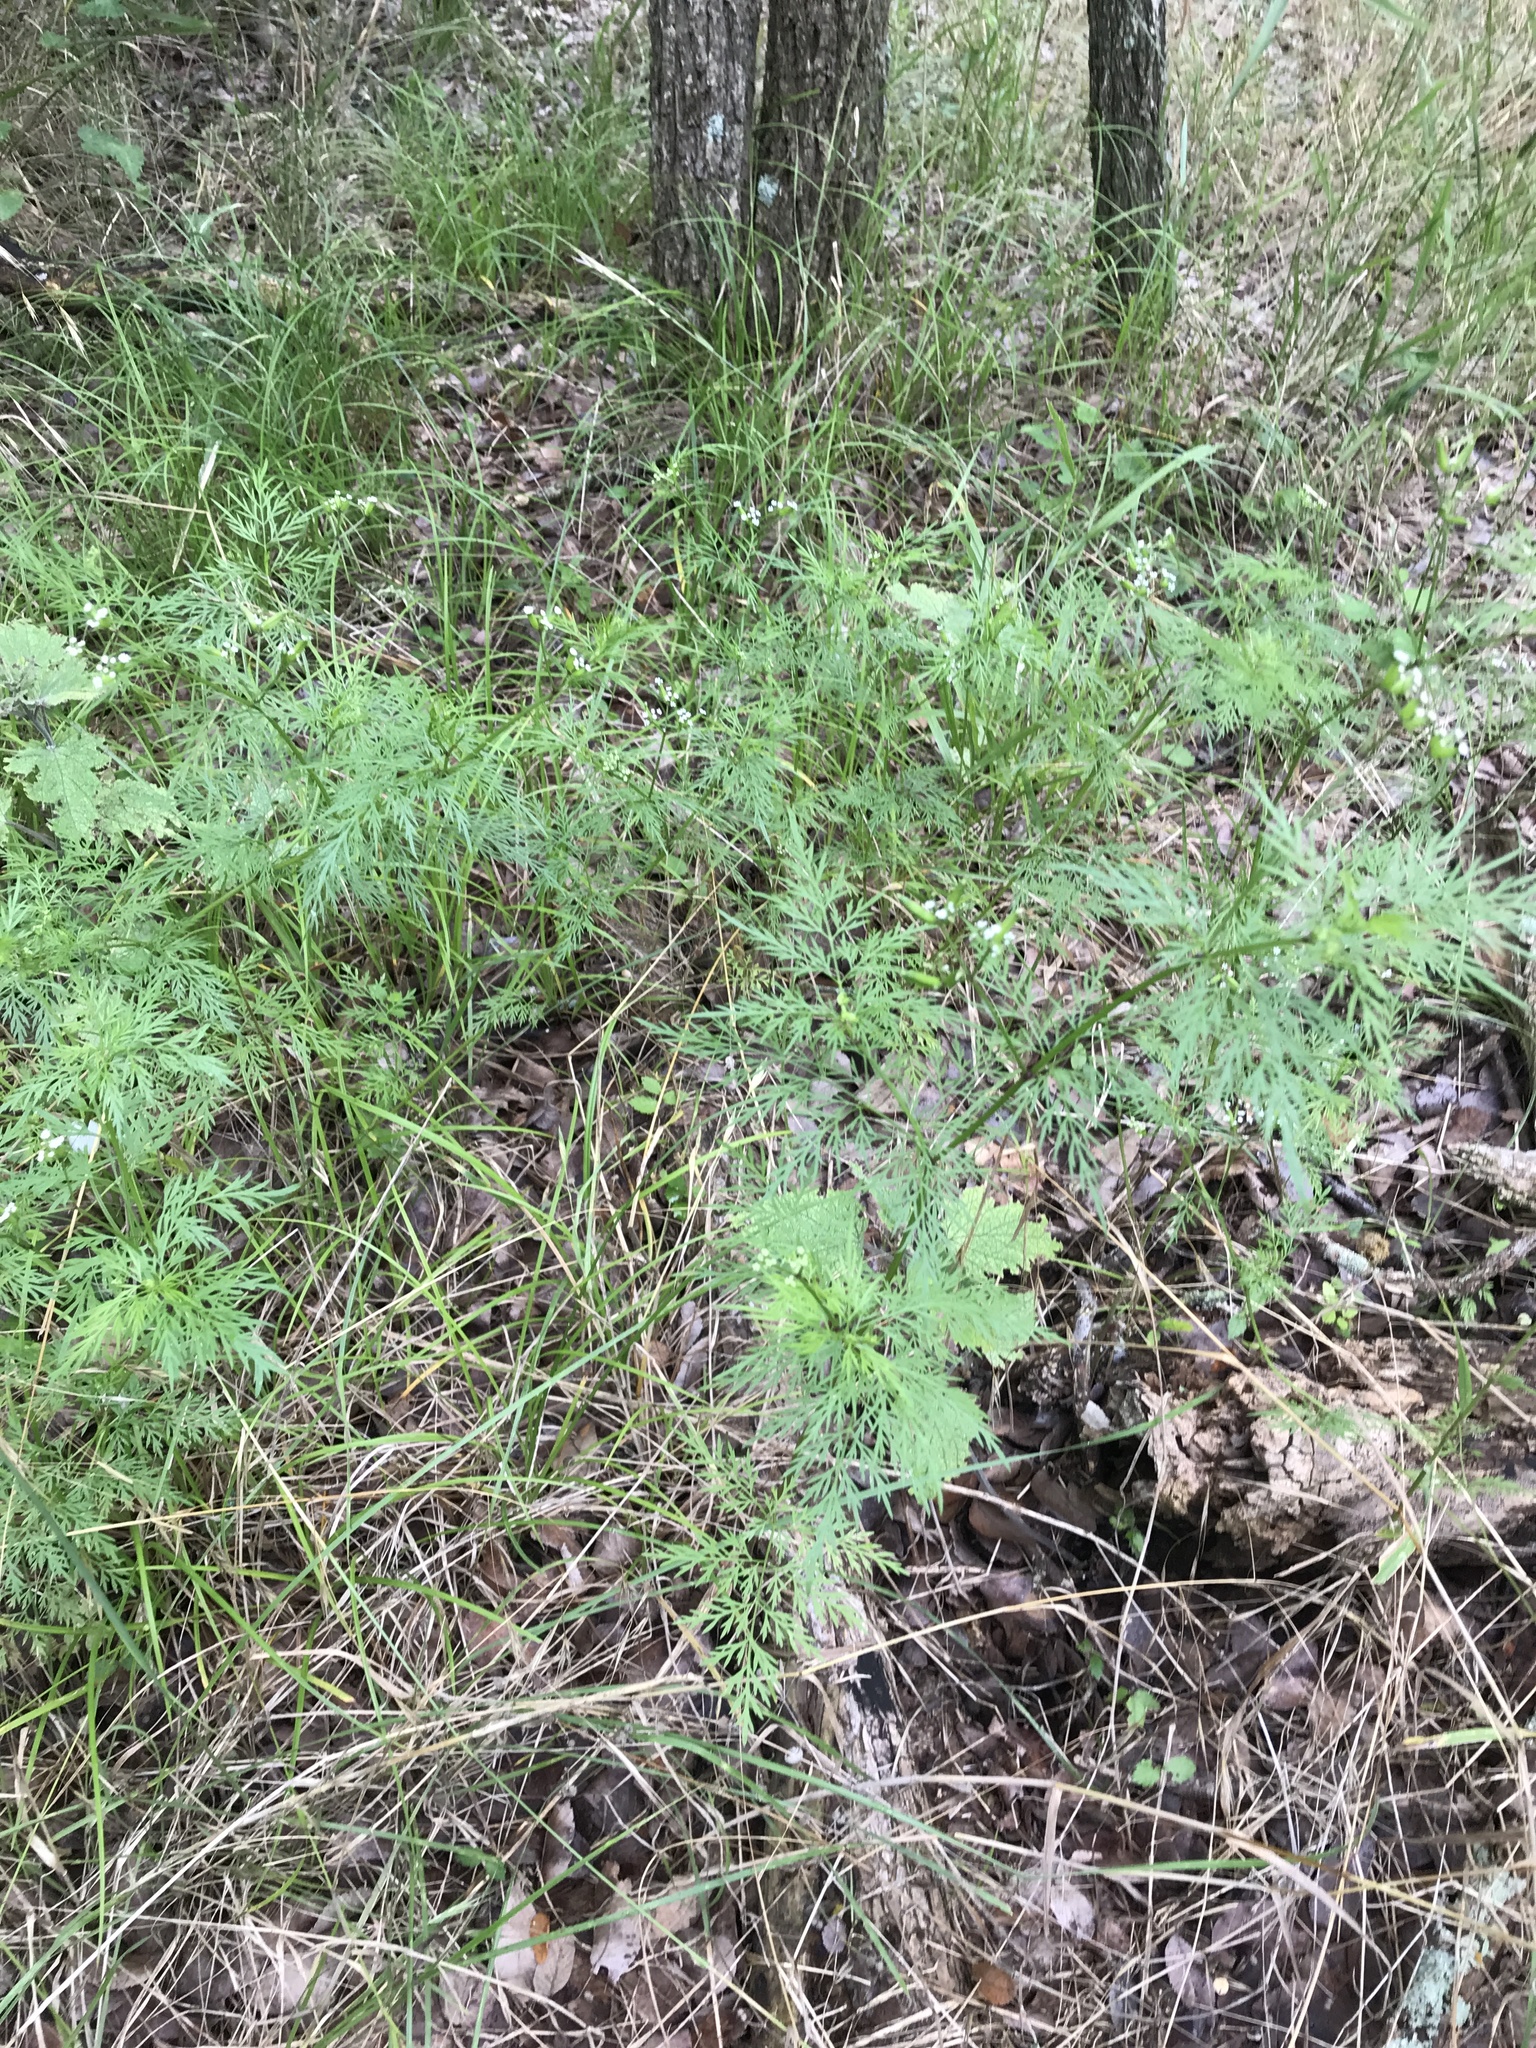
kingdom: Plantae
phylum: Tracheophyta
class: Magnoliopsida
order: Apiales
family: Apiaceae
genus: Trepocarpus
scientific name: Trepocarpus aethusae
